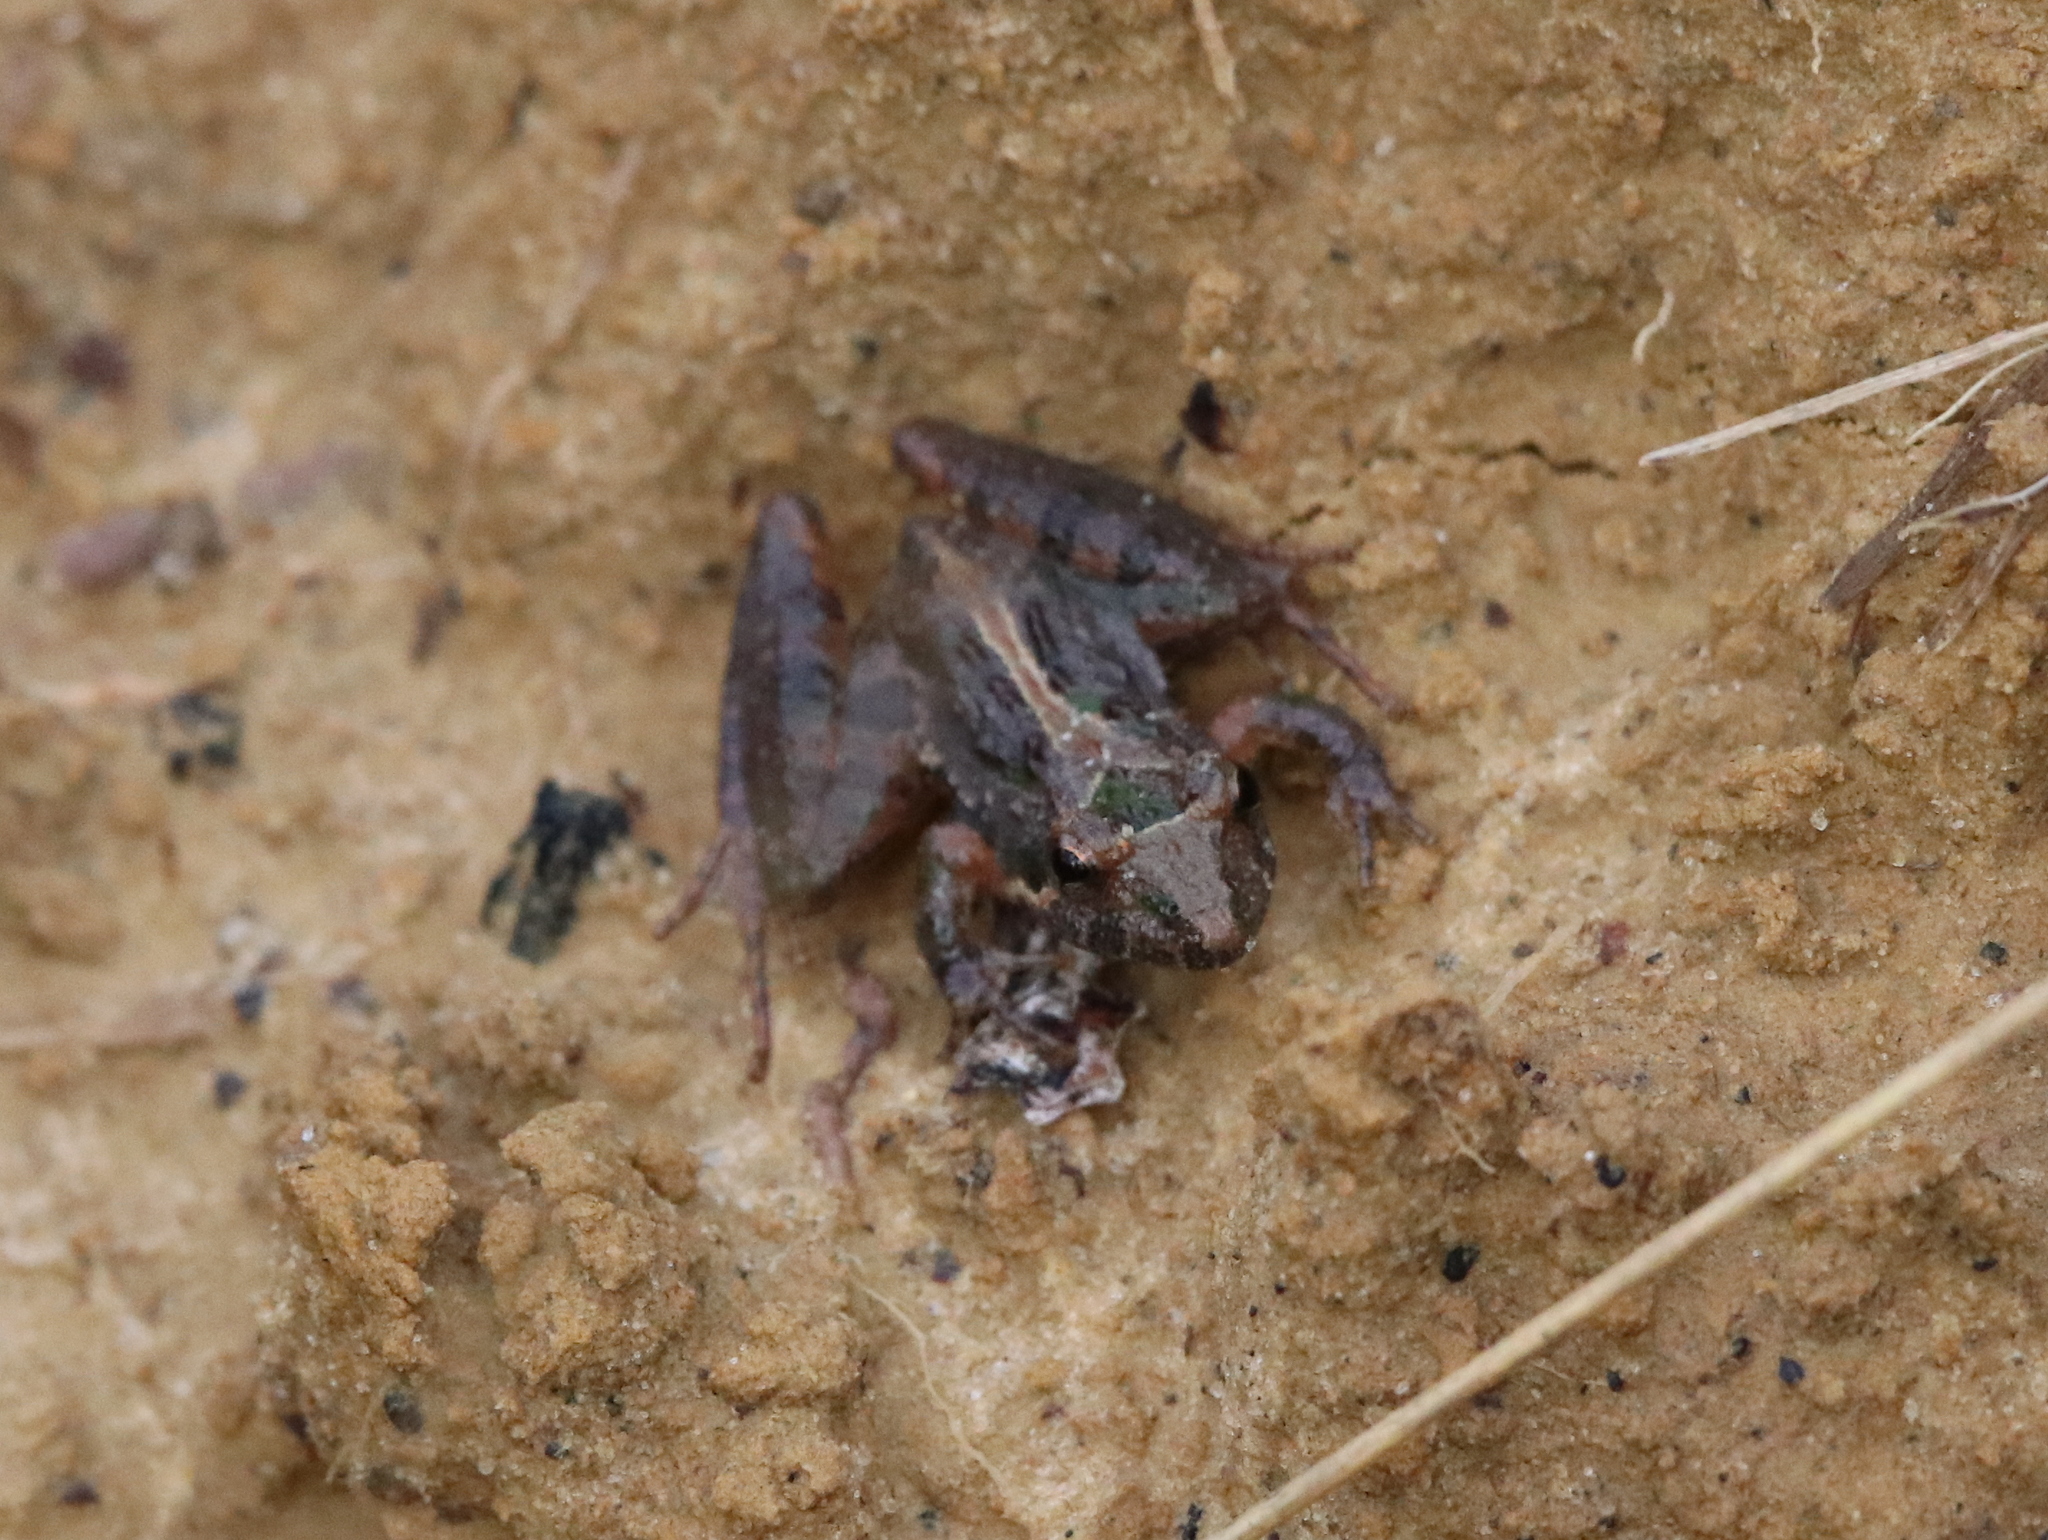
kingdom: Animalia
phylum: Chordata
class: Amphibia
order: Anura
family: Hylidae
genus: Acris
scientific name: Acris gryllus
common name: Southern cricket frog
